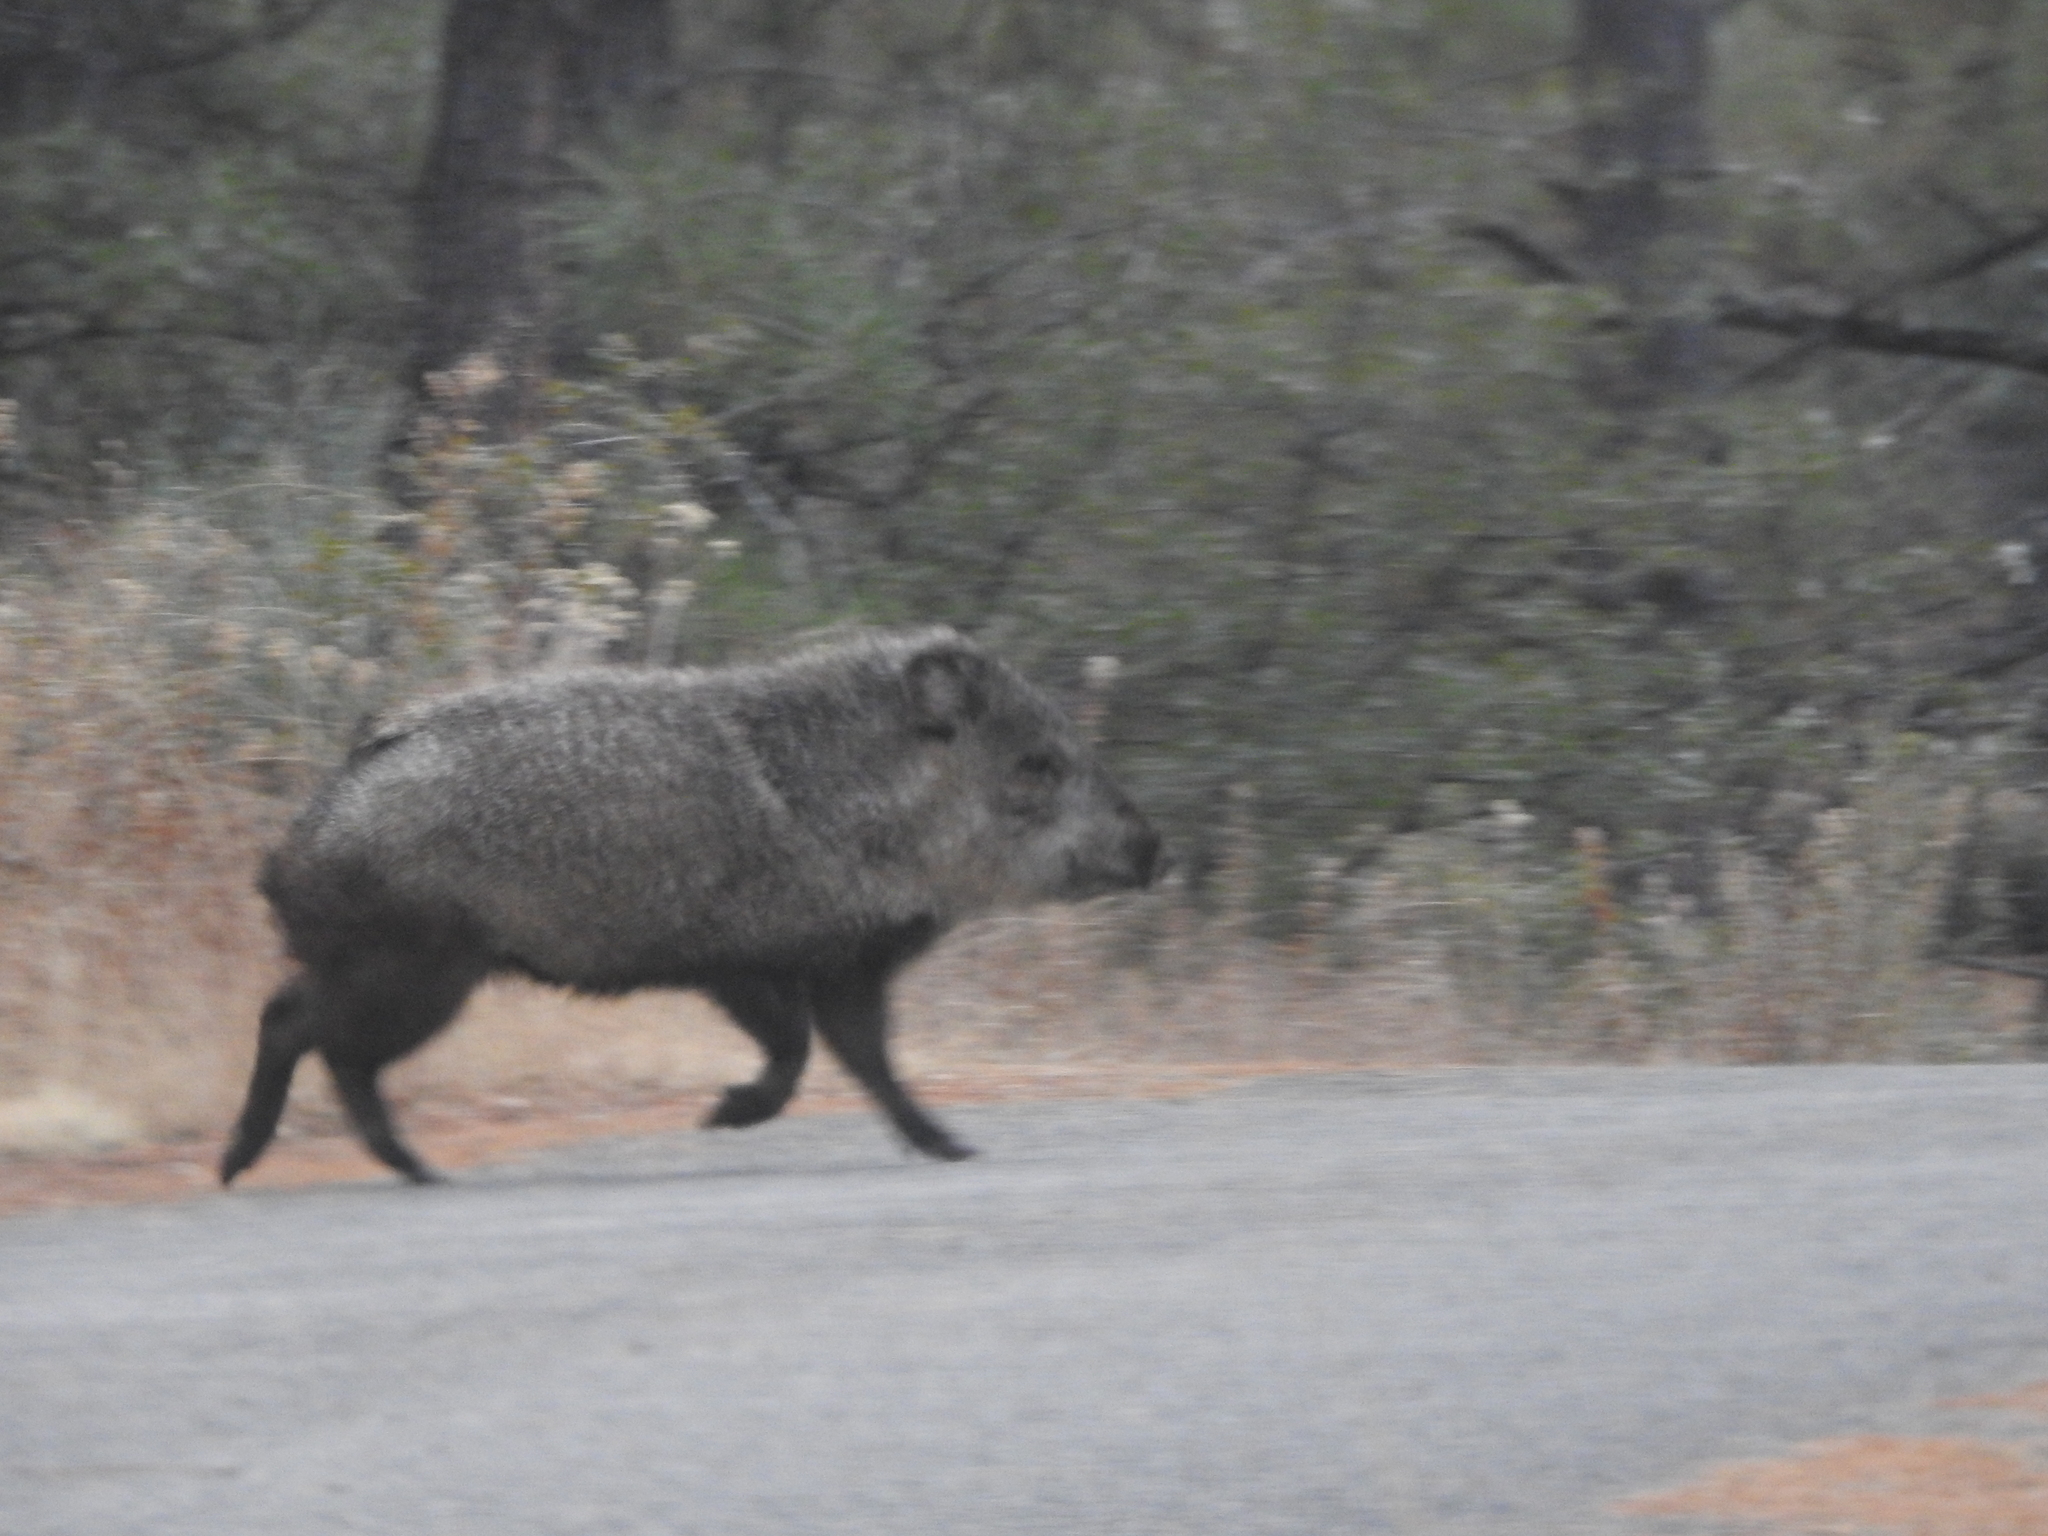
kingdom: Animalia
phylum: Chordata
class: Mammalia
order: Artiodactyla
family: Tayassuidae
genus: Pecari
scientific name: Pecari tajacu
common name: Collared peccary
